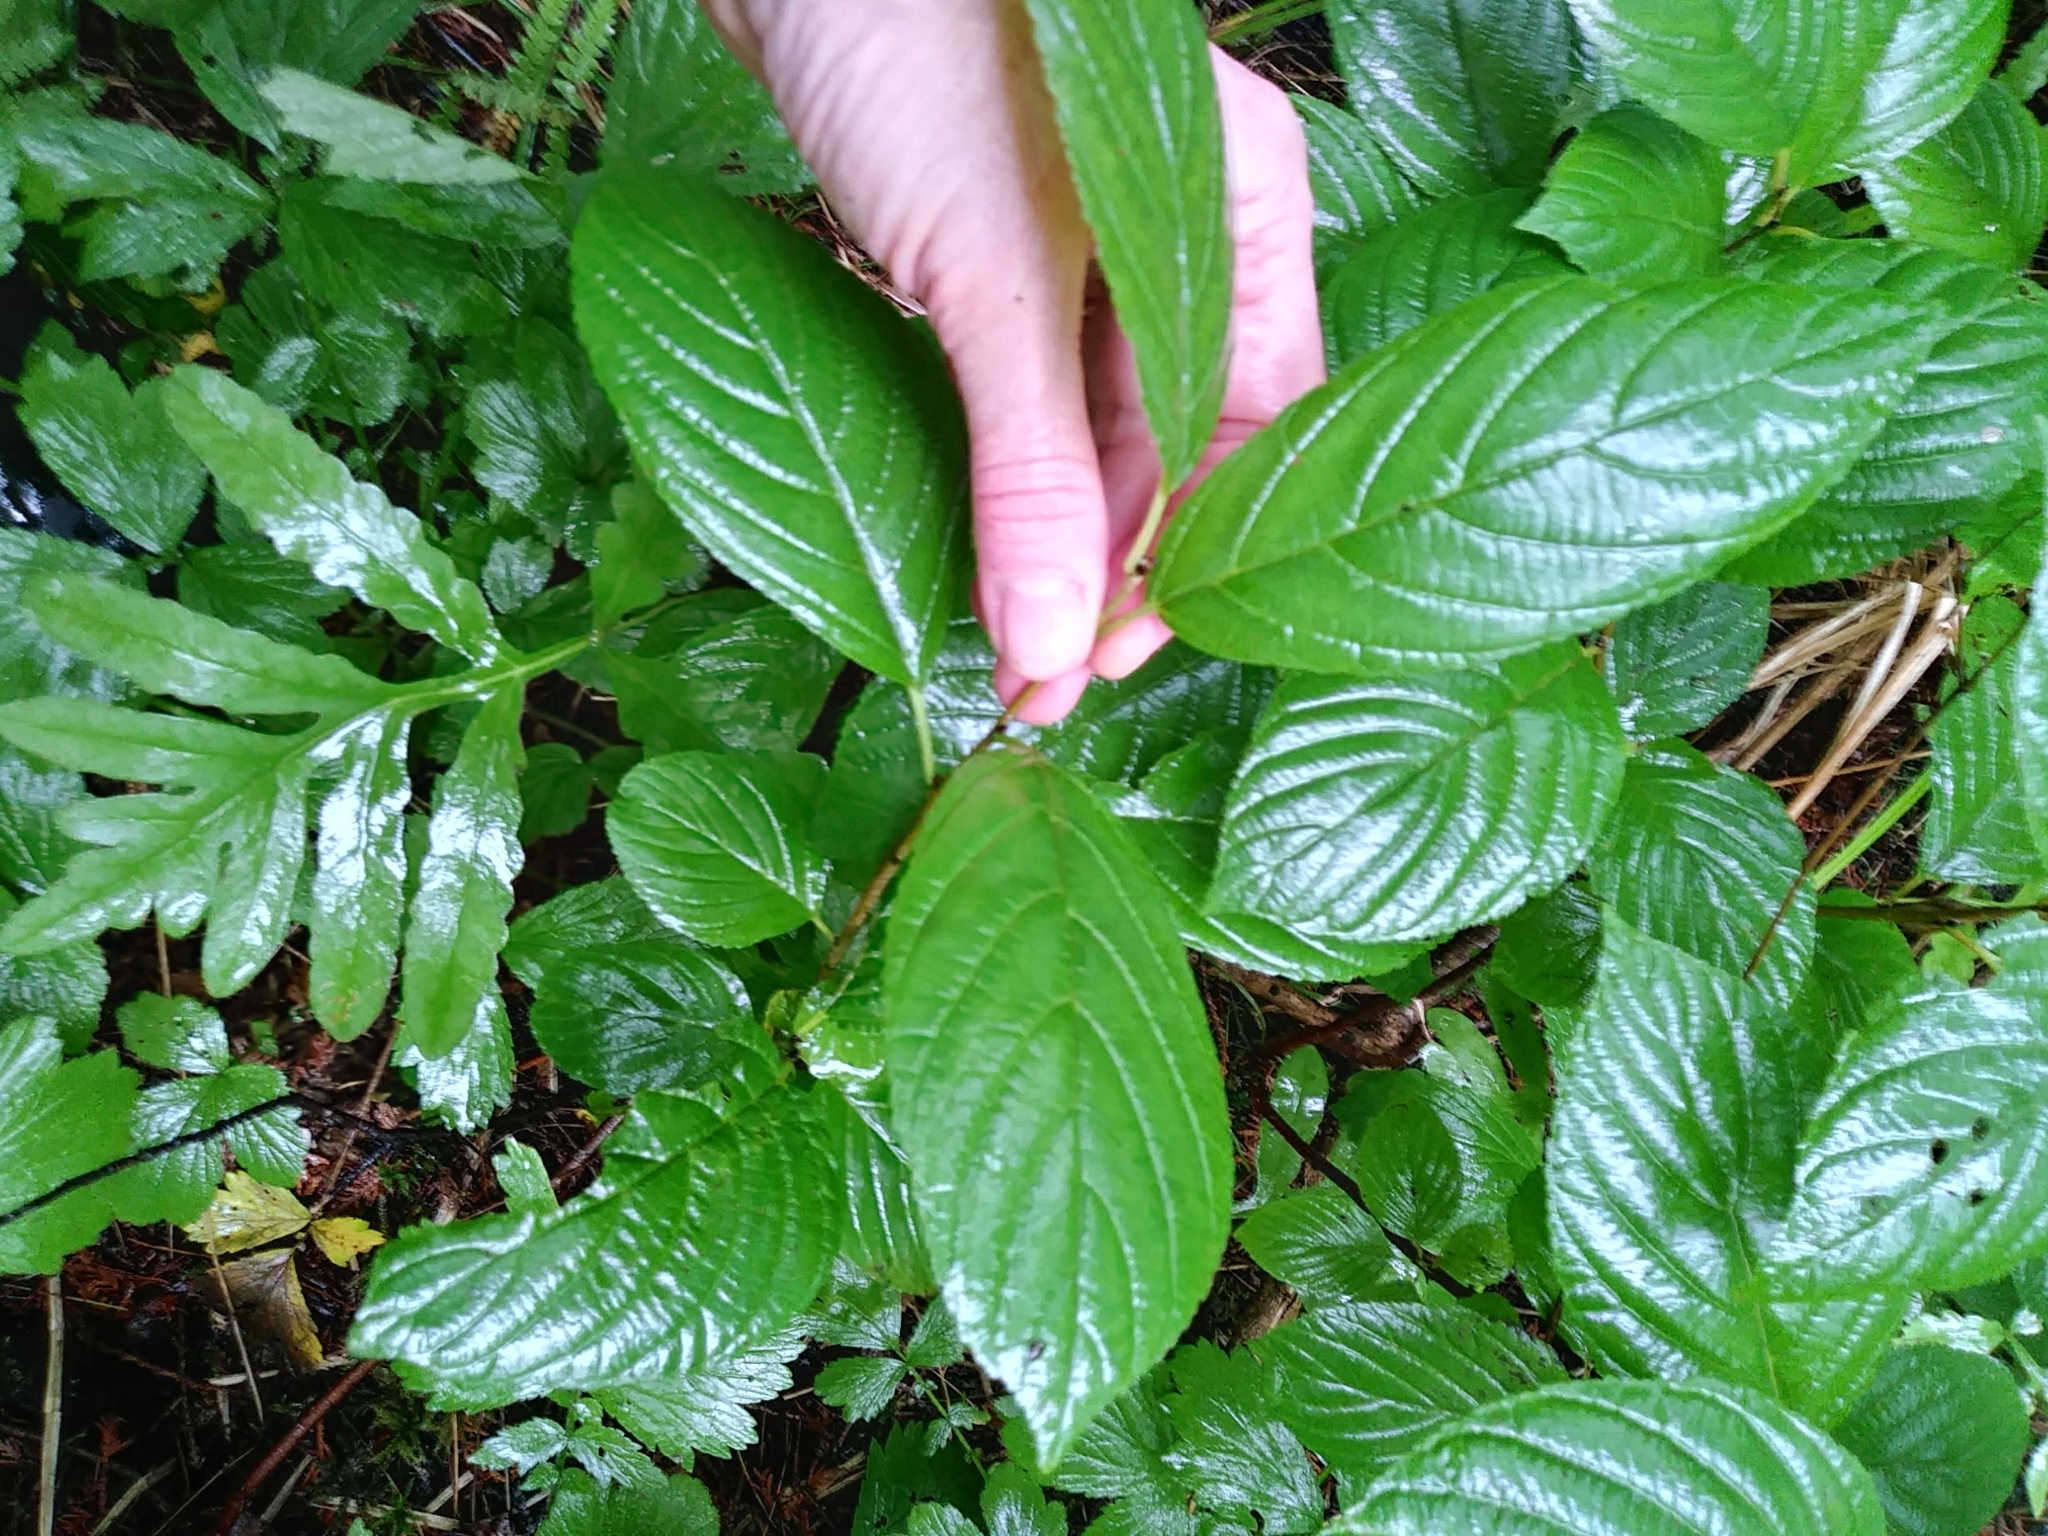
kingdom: Plantae
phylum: Tracheophyta
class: Magnoliopsida
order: Rosales
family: Rhamnaceae
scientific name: Rhamnaceae
